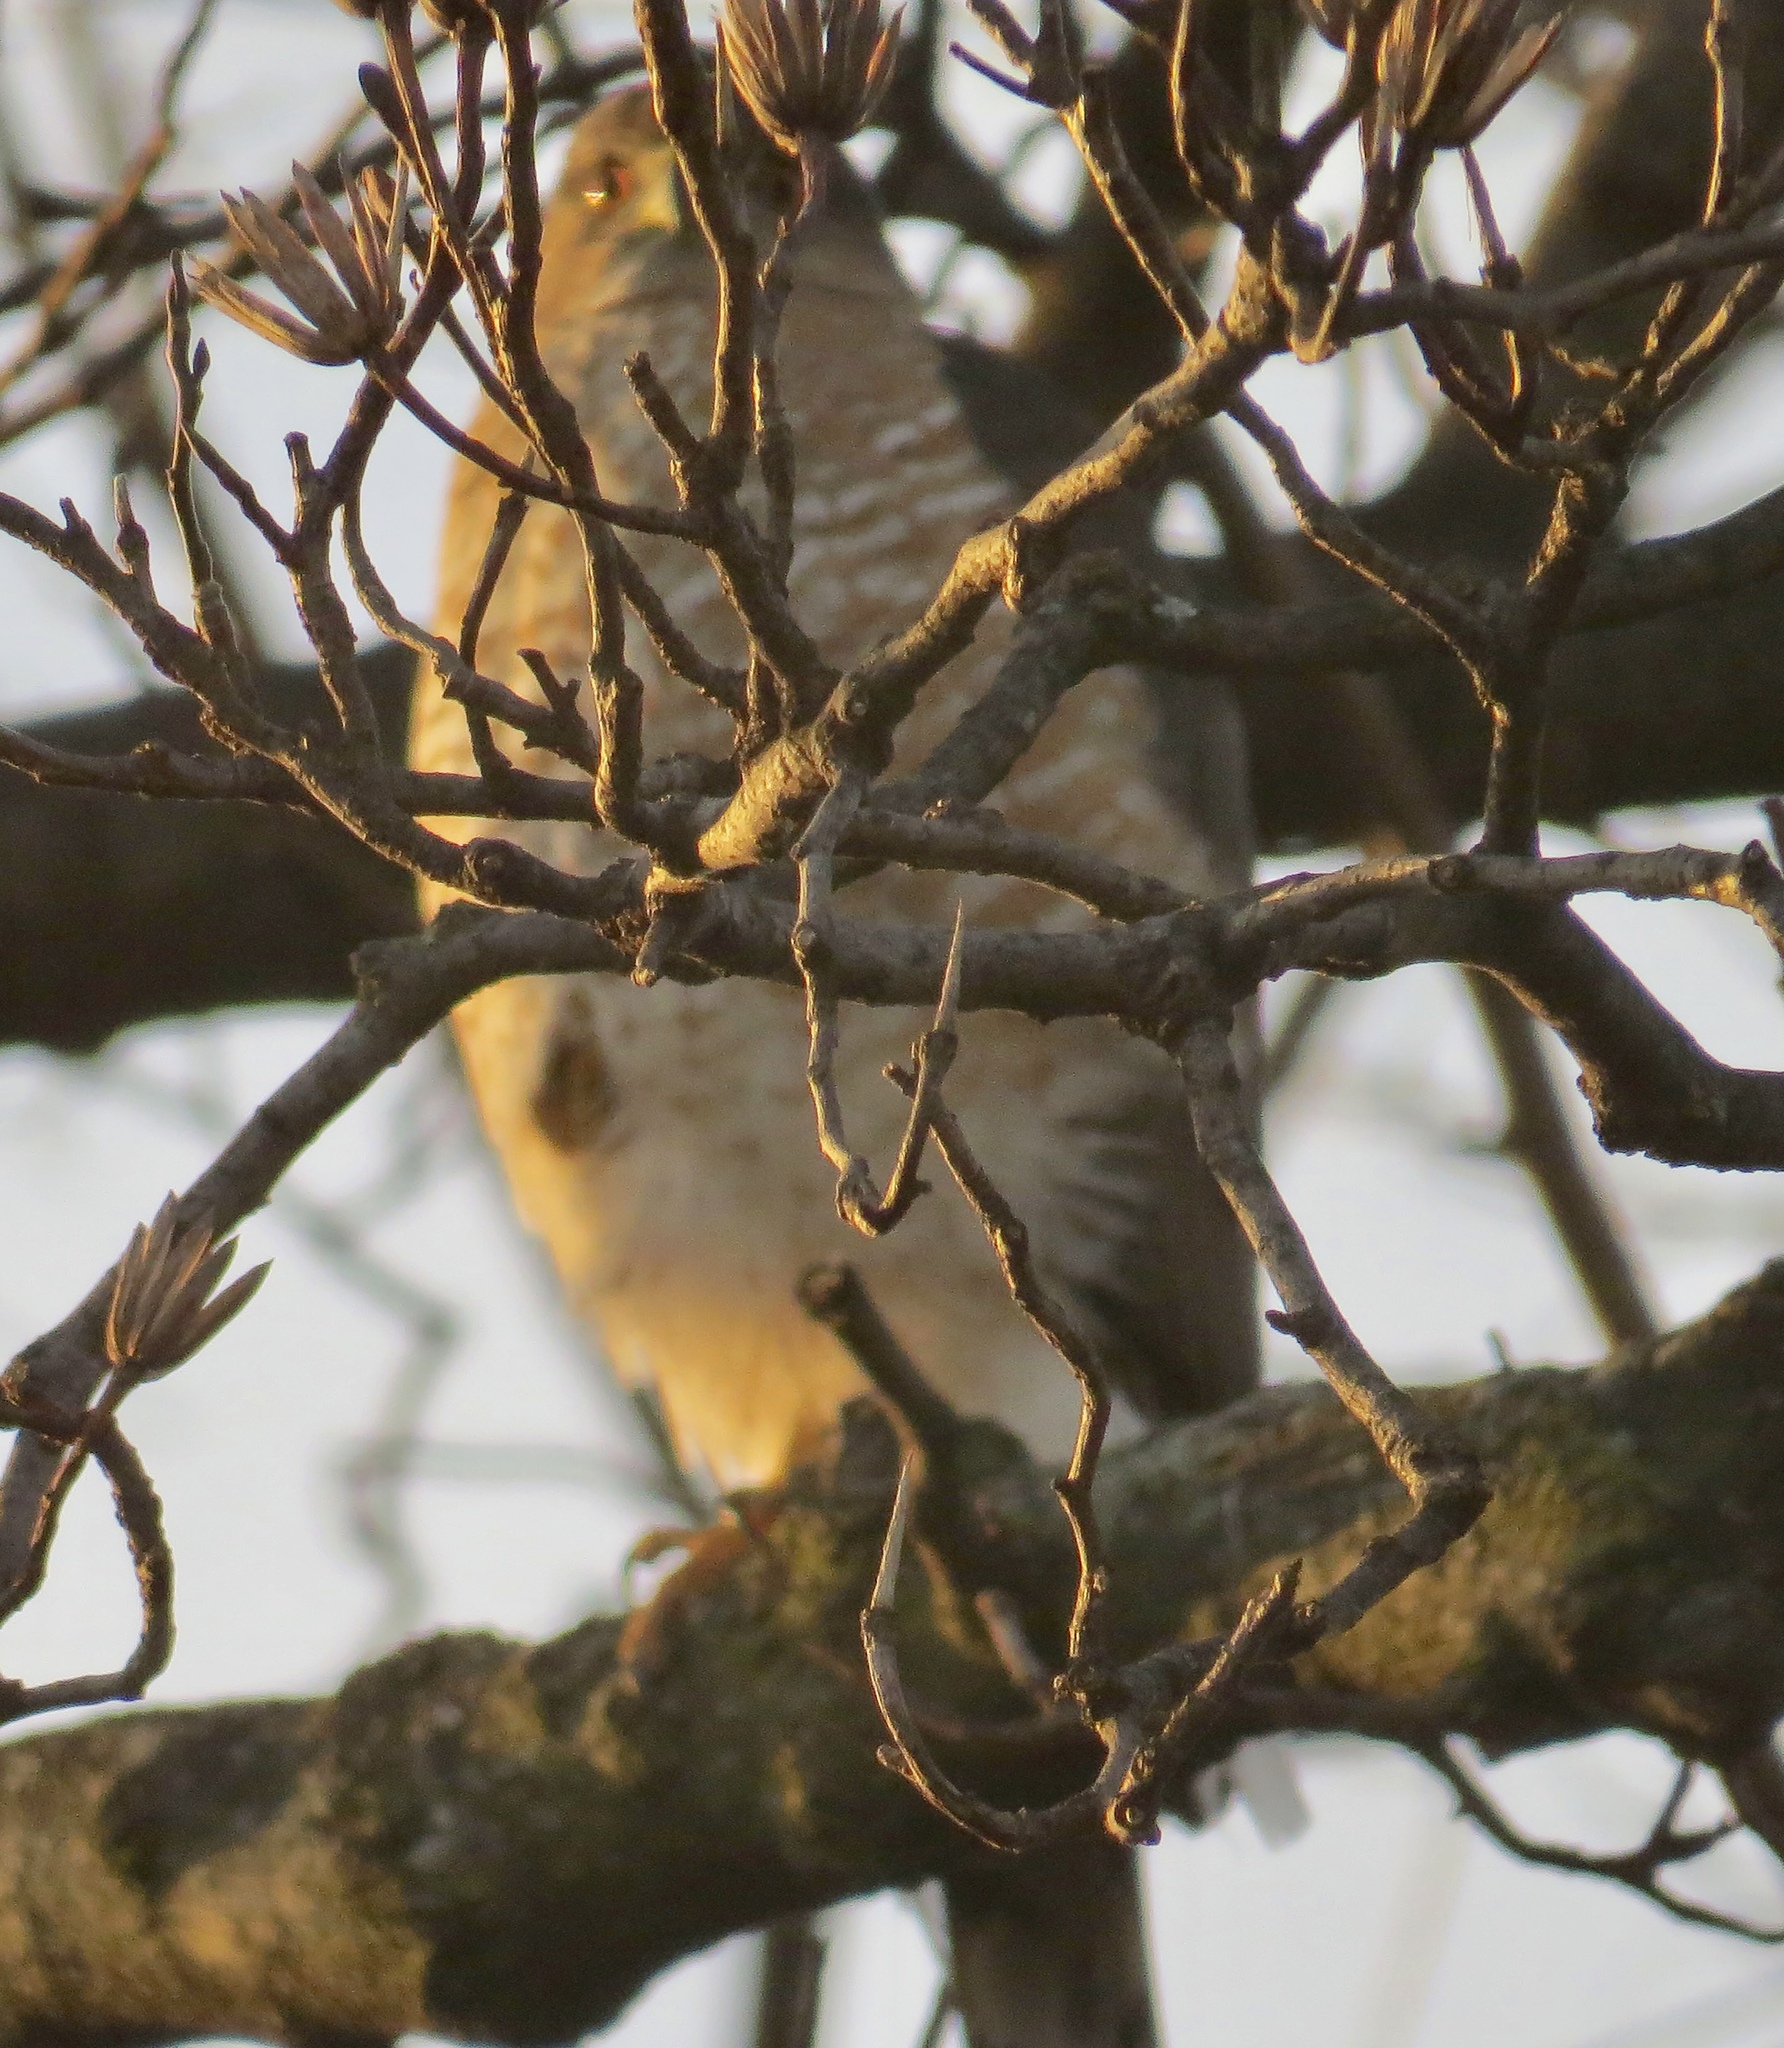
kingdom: Animalia
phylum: Chordata
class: Aves
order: Accipitriformes
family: Accipitridae
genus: Accipiter
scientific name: Accipiter
